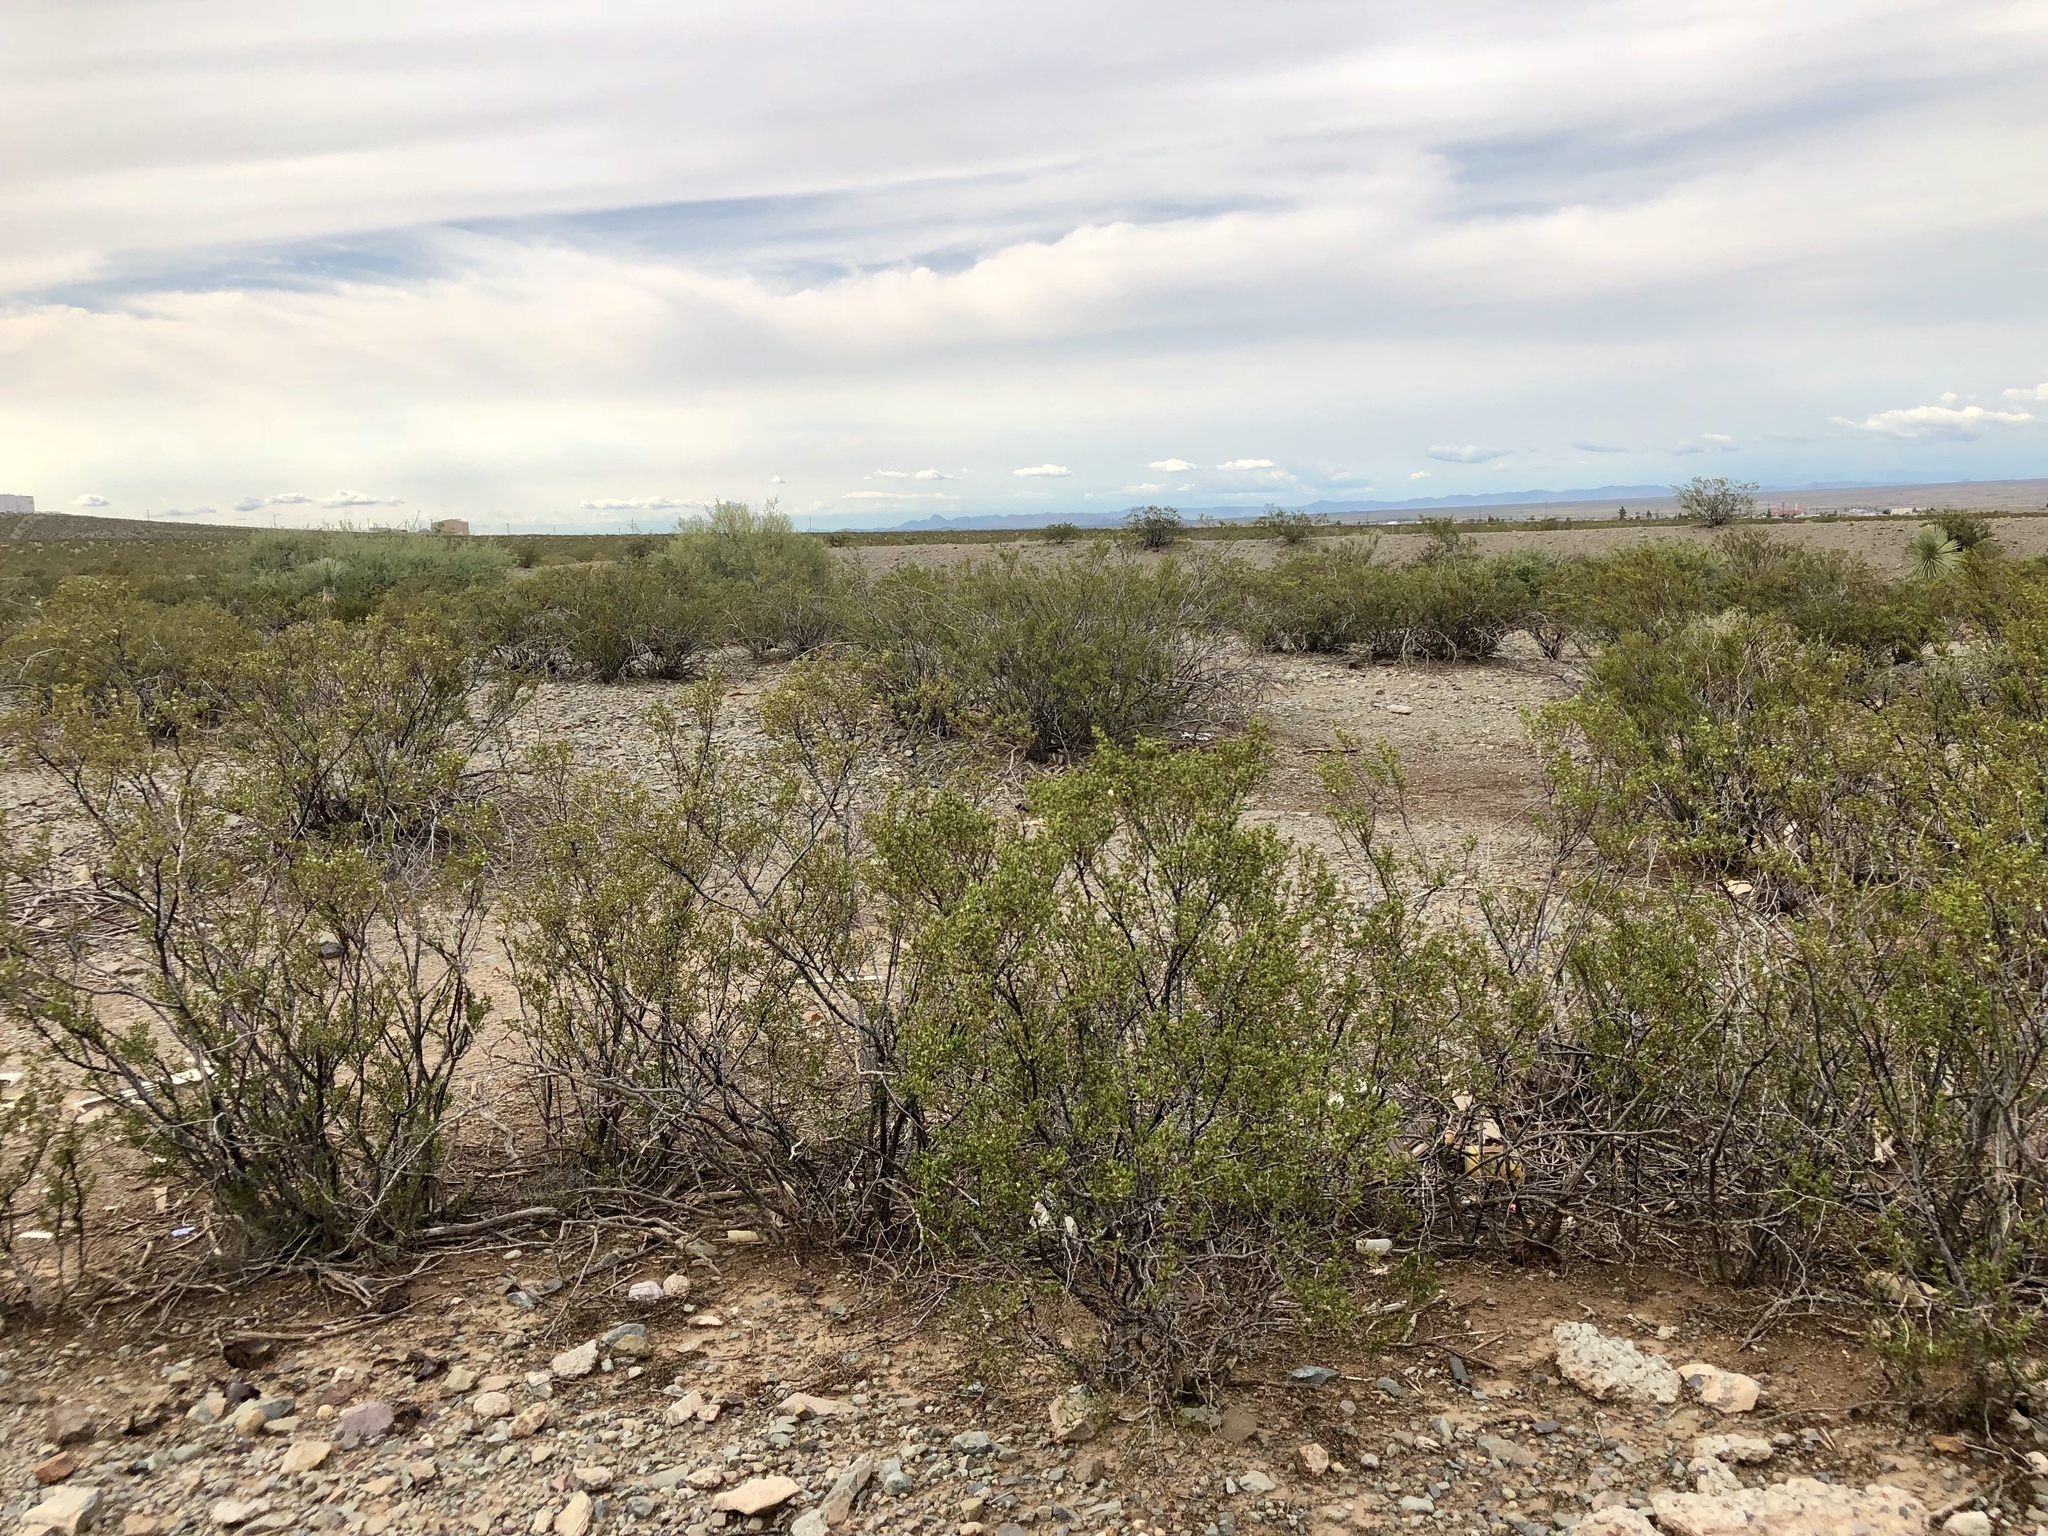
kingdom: Plantae
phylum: Tracheophyta
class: Magnoliopsida
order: Zygophyllales
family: Zygophyllaceae
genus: Larrea
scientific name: Larrea tridentata
